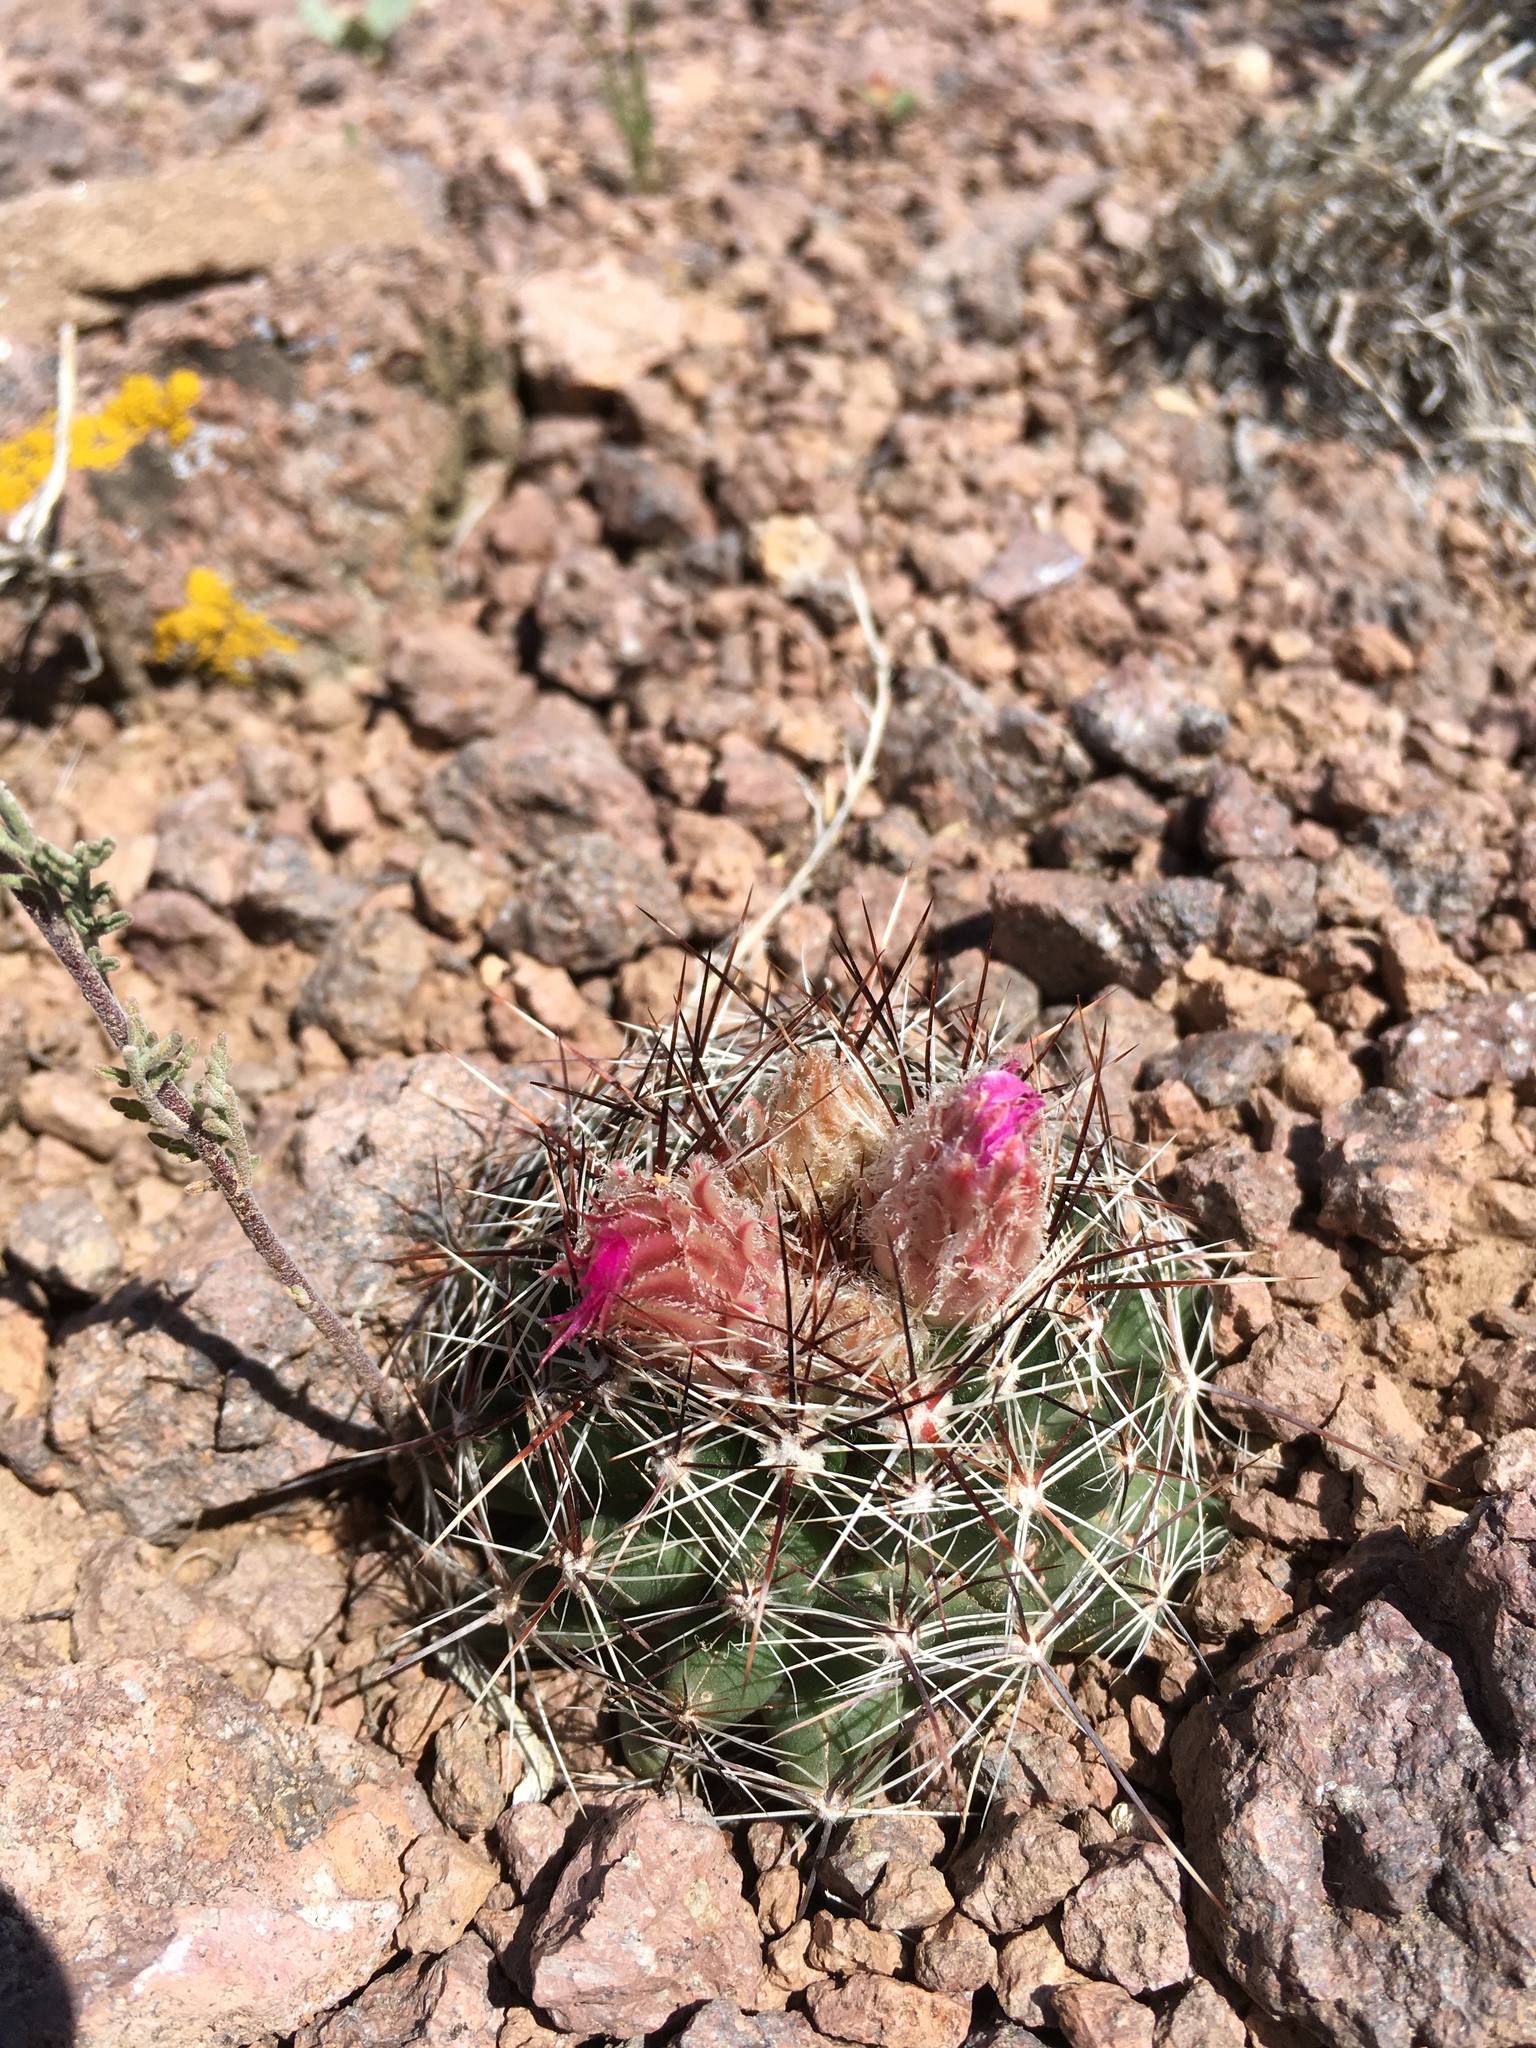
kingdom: Plantae
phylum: Tracheophyta
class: Magnoliopsida
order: Caryophyllales
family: Cactaceae
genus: Pelecyphora
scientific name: Pelecyphora vivipara
